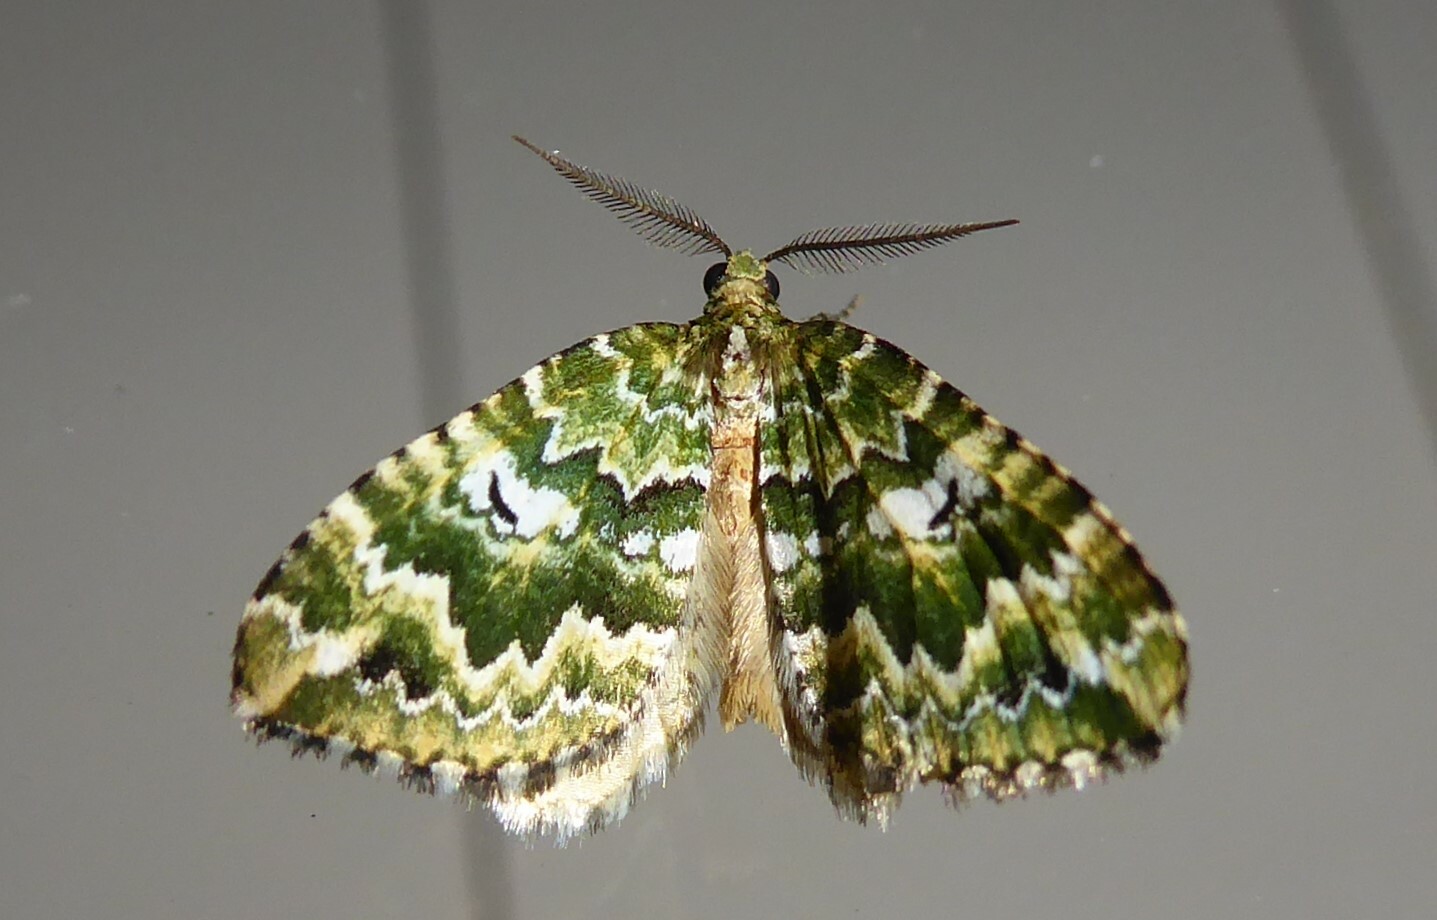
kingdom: Animalia
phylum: Arthropoda
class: Insecta
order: Lepidoptera
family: Geometridae
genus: Asaphodes
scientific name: Asaphodes beata
